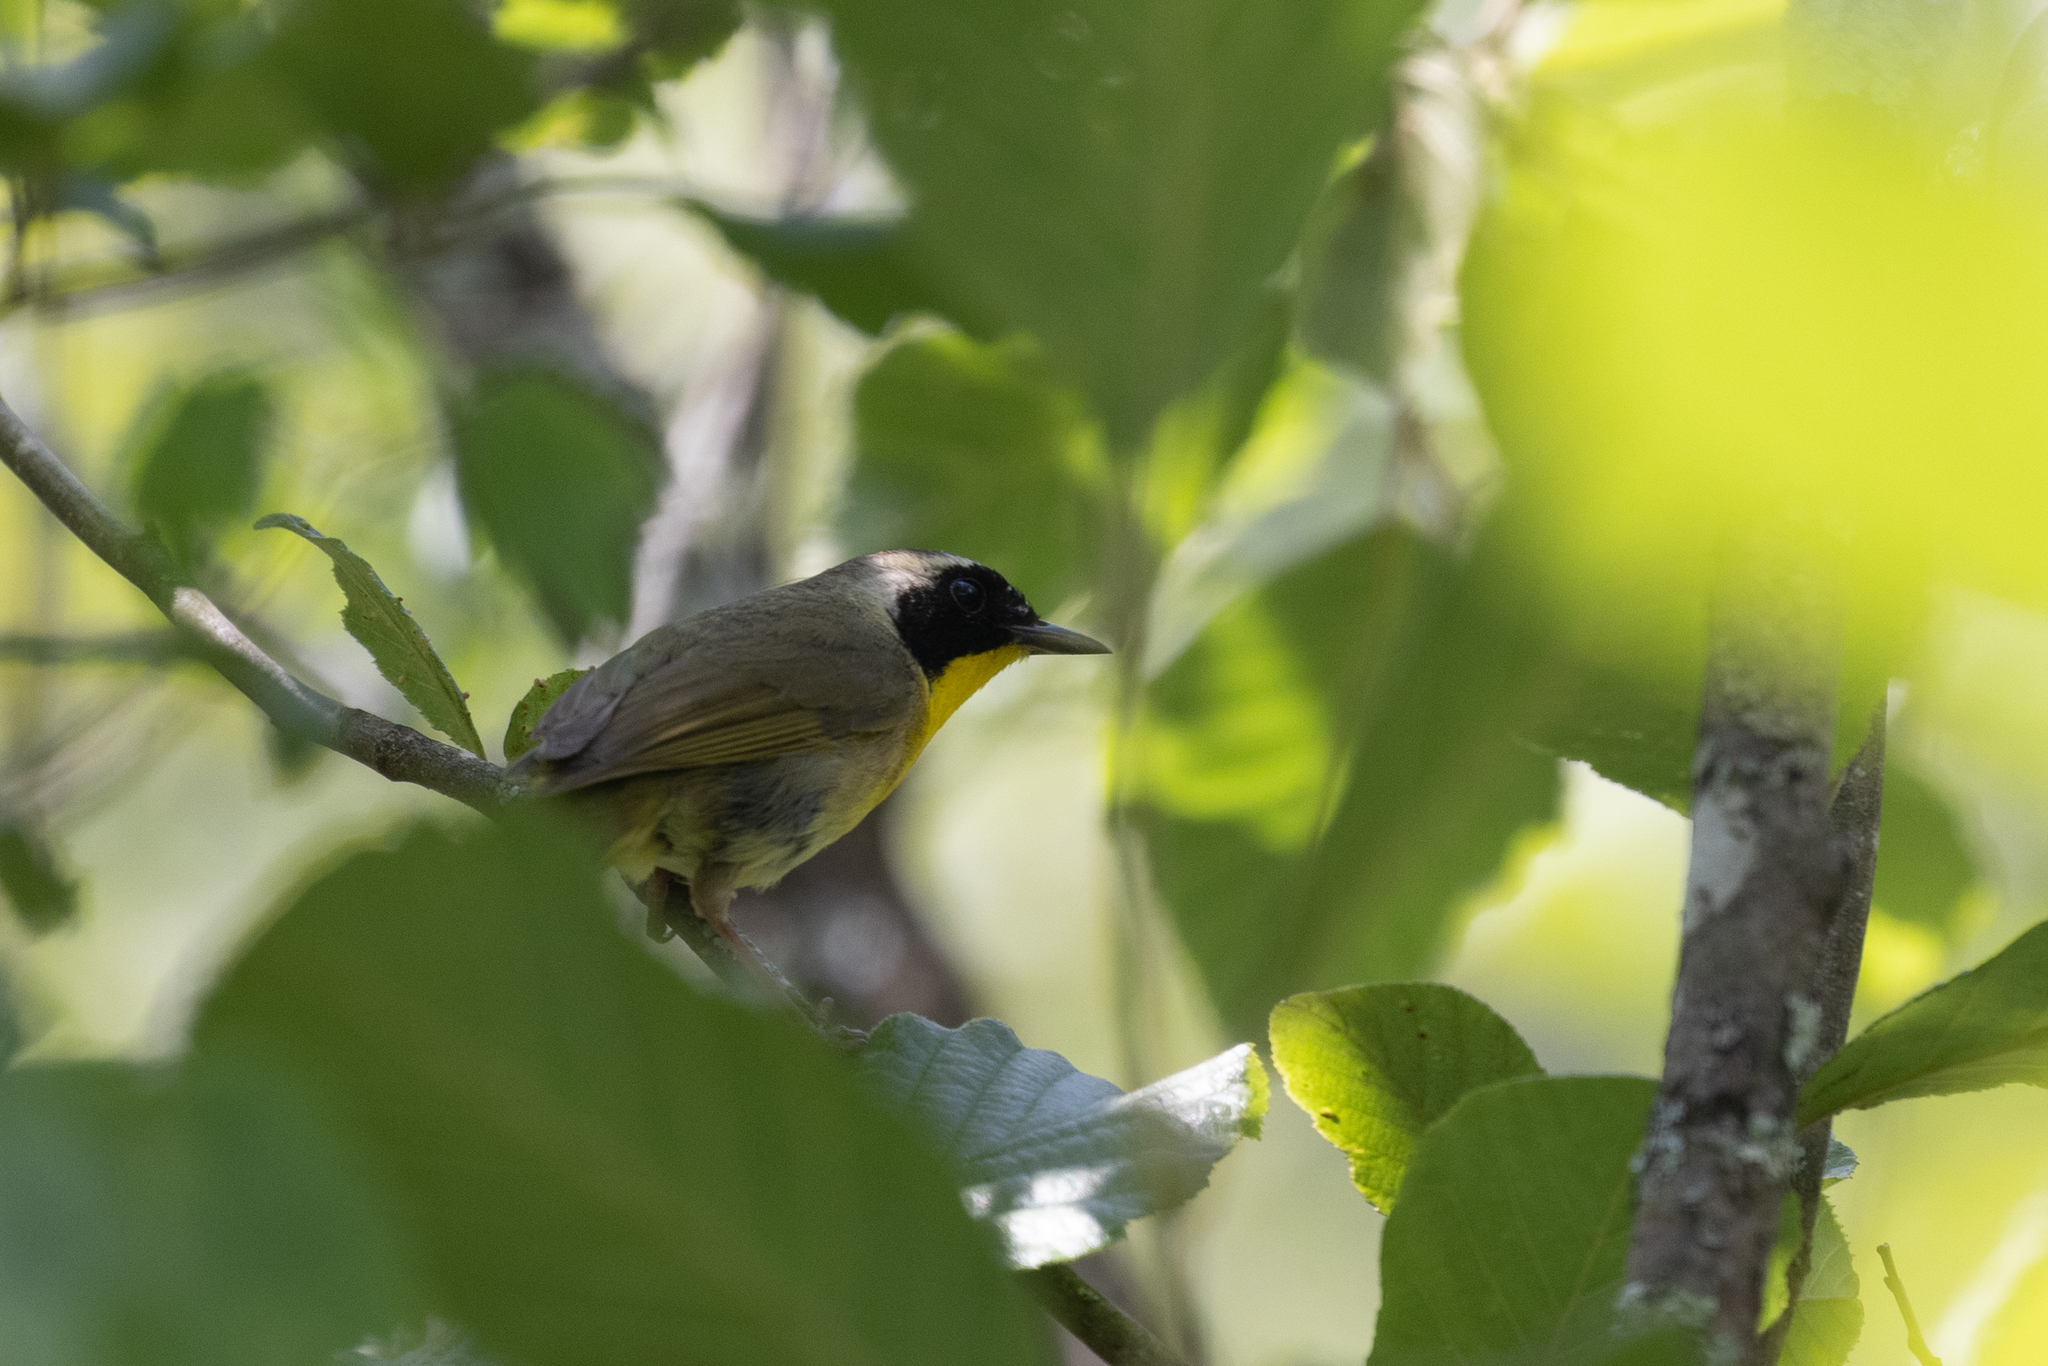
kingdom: Animalia
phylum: Chordata
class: Aves
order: Passeriformes
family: Parulidae
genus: Geothlypis
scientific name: Geothlypis trichas
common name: Common yellowthroat
